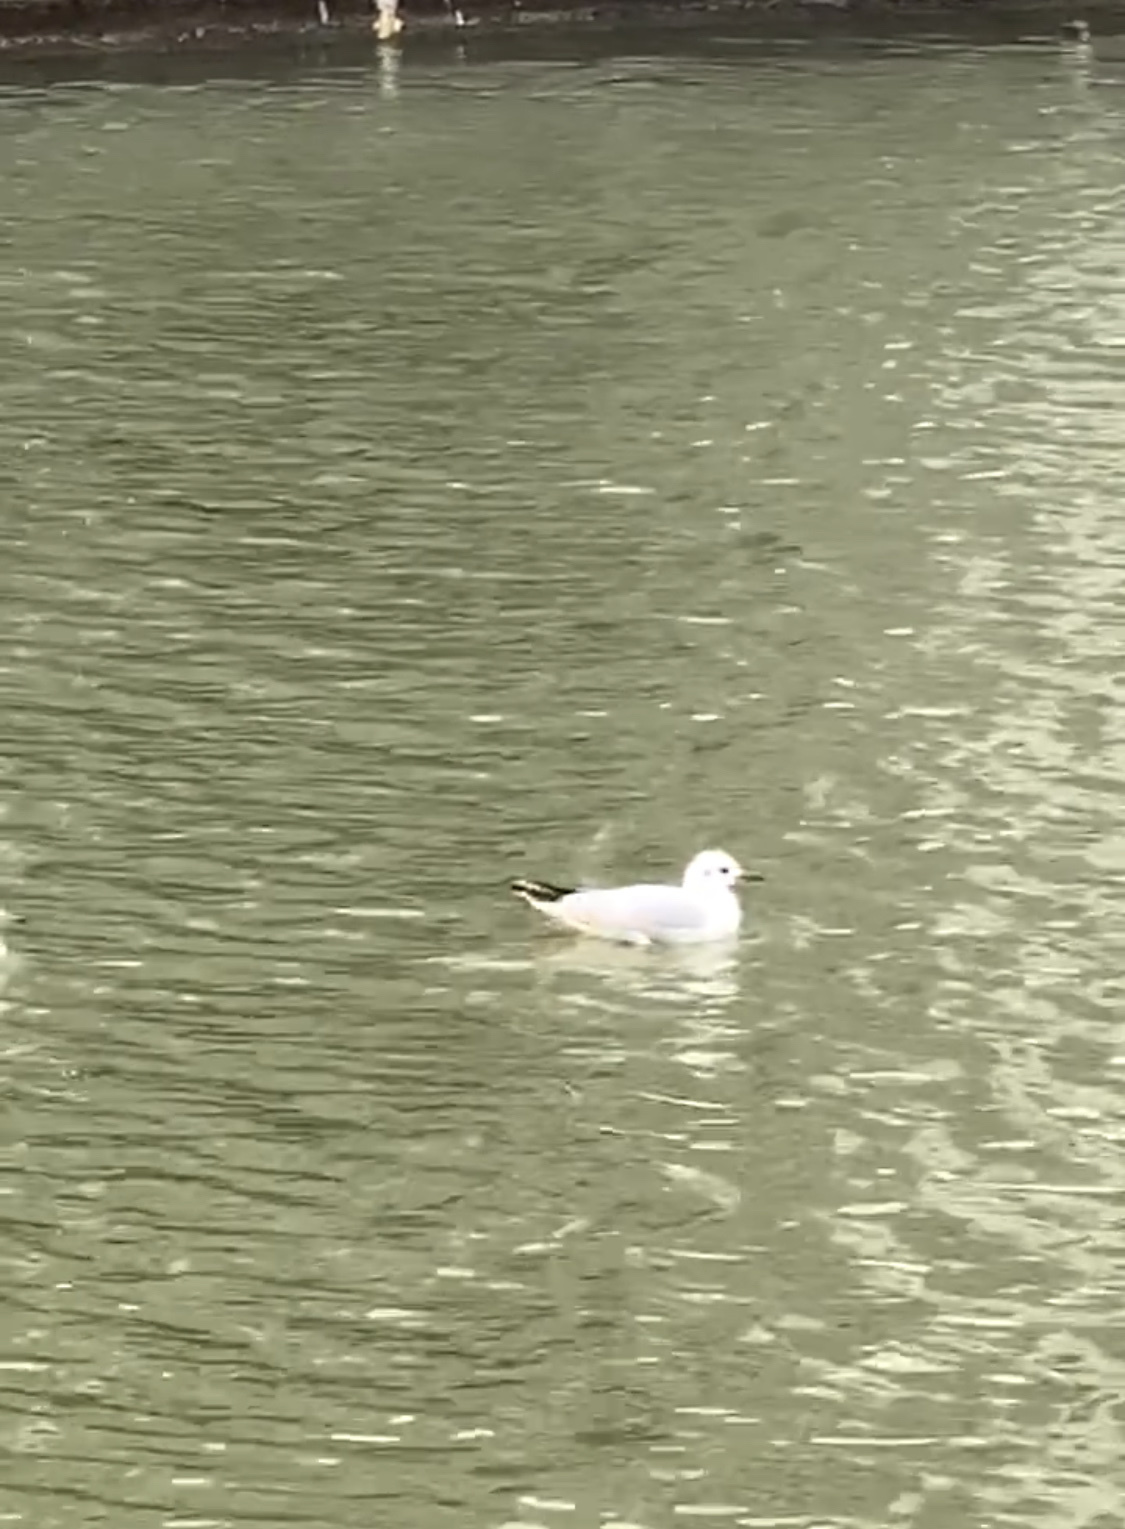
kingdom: Animalia
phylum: Chordata
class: Aves
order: Charadriiformes
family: Laridae
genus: Chroicocephalus
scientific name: Chroicocephalus ridibundus
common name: Black-headed gull
